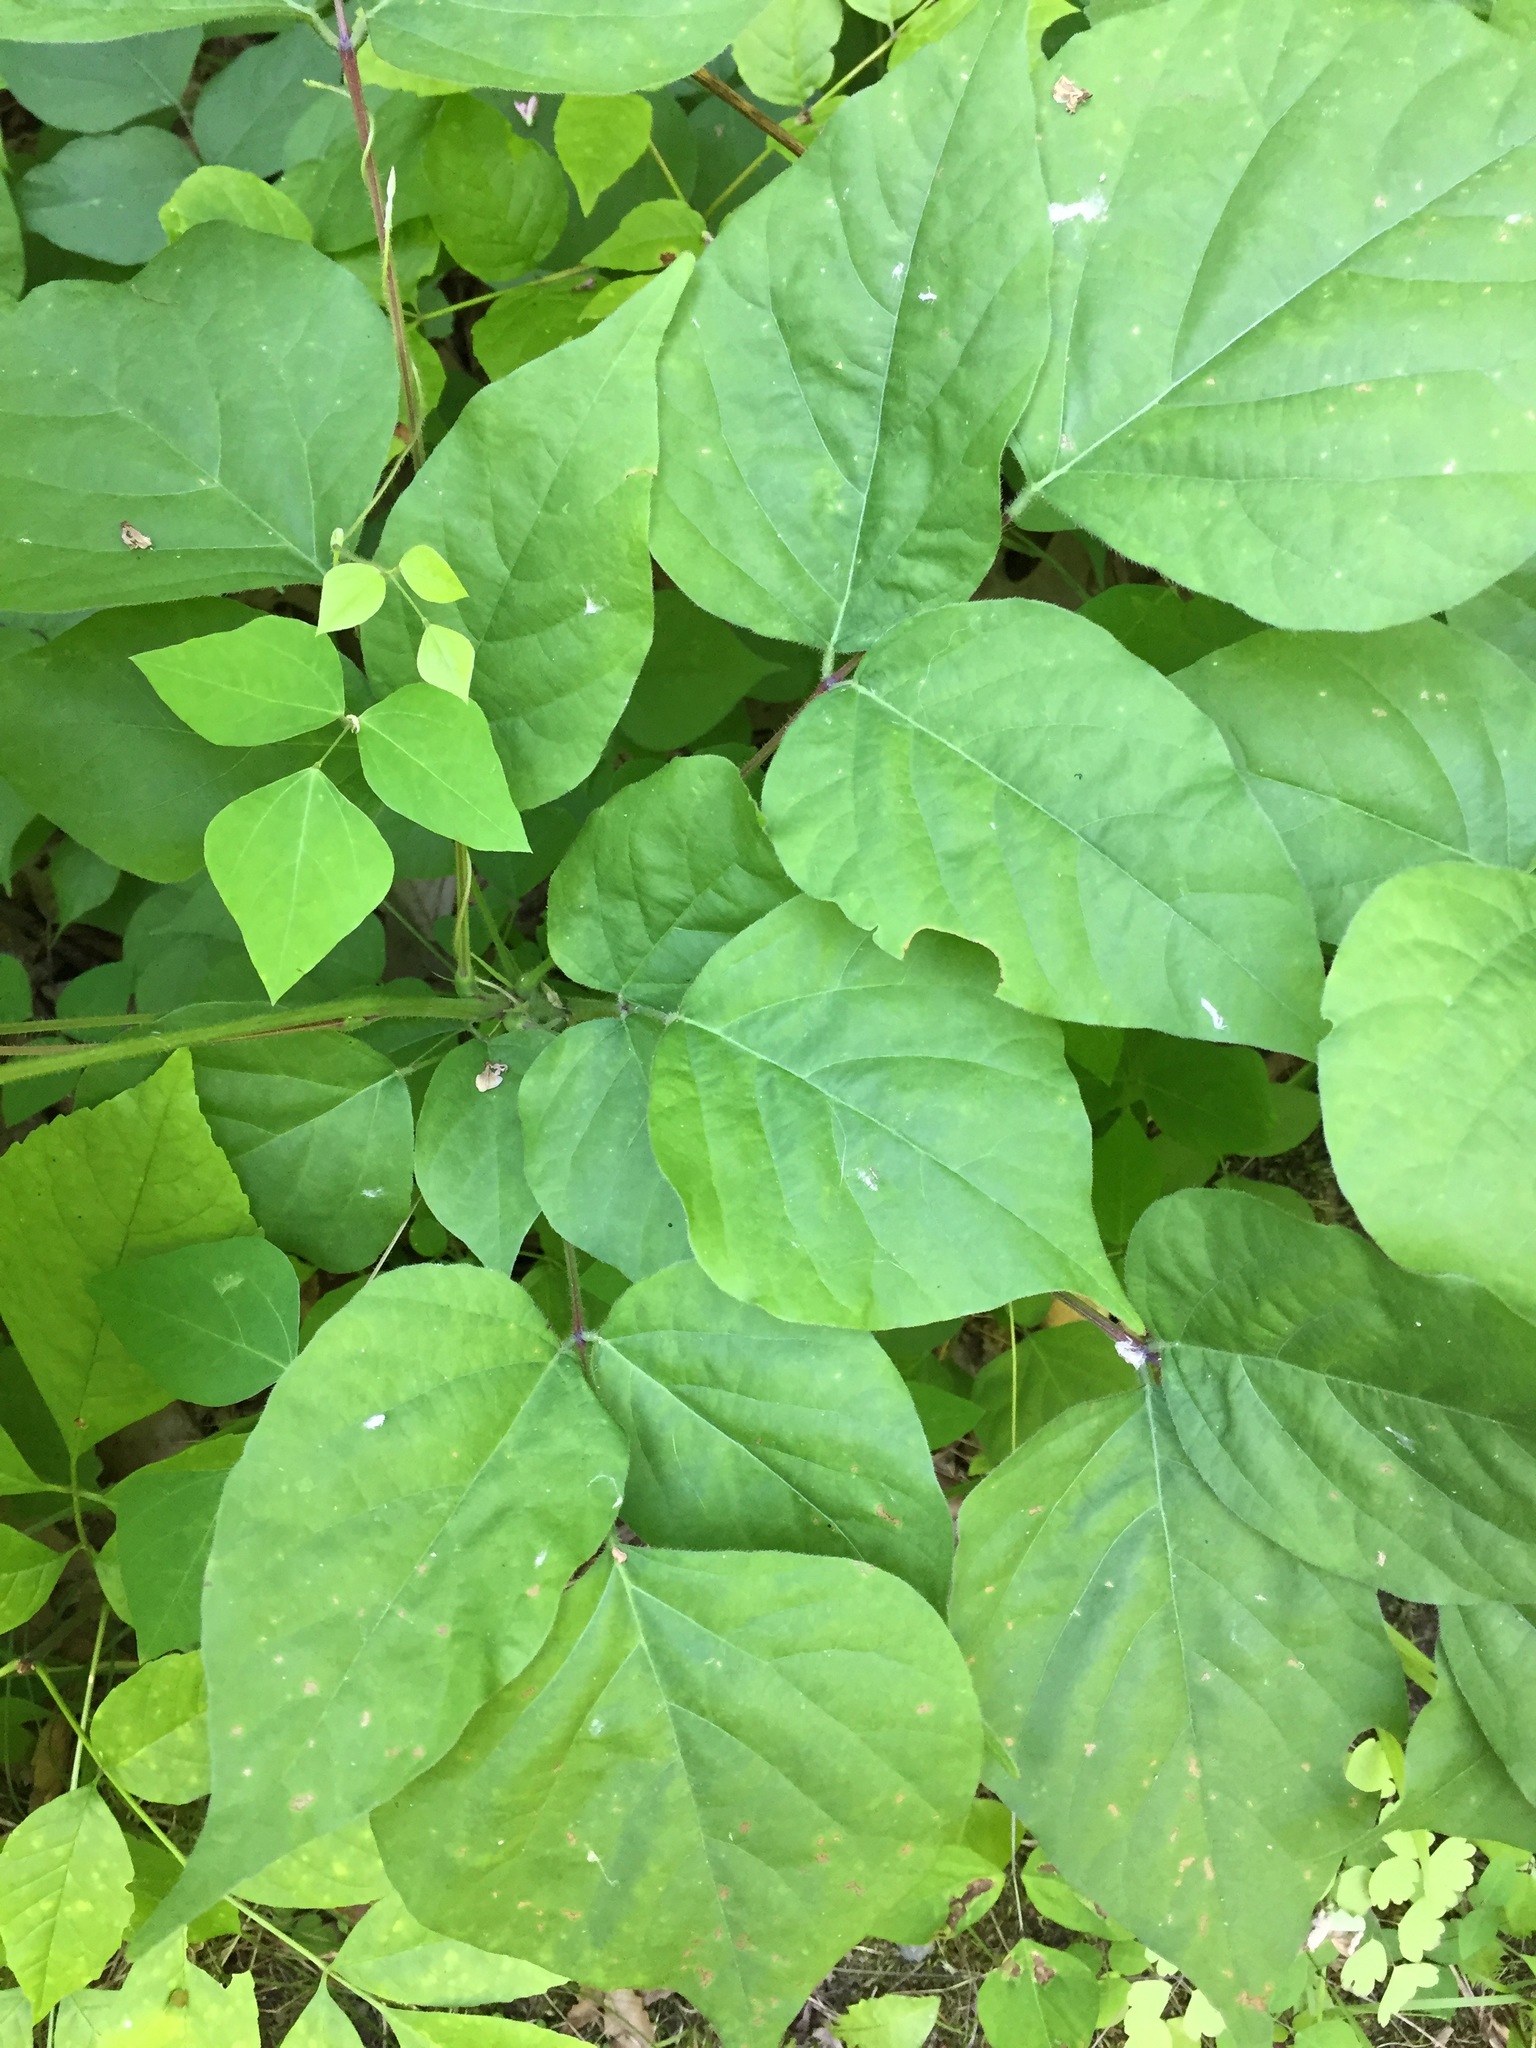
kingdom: Plantae
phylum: Tracheophyta
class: Magnoliopsida
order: Fabales
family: Fabaceae
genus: Hylodesmum
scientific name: Hylodesmum glutinosum
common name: Clustered-leaved tick-trefoil
